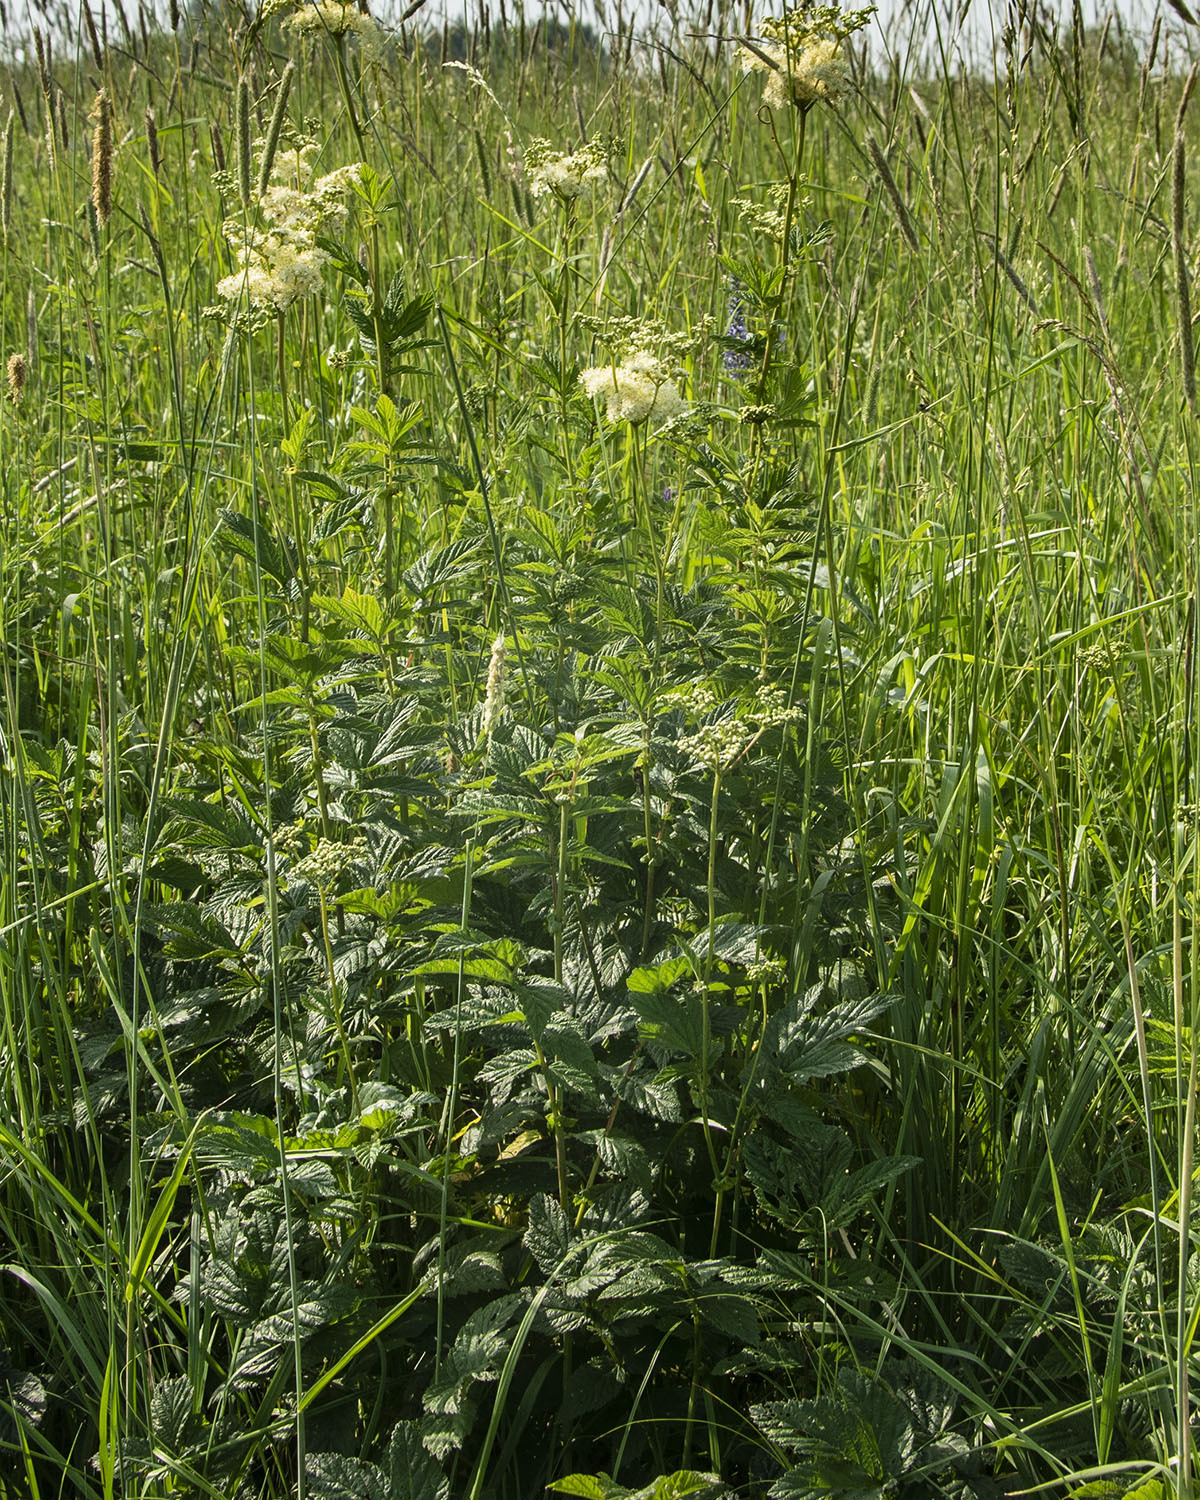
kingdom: Plantae
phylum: Tracheophyta
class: Magnoliopsida
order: Rosales
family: Rosaceae
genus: Filipendula
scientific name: Filipendula ulmaria
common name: Meadowsweet
